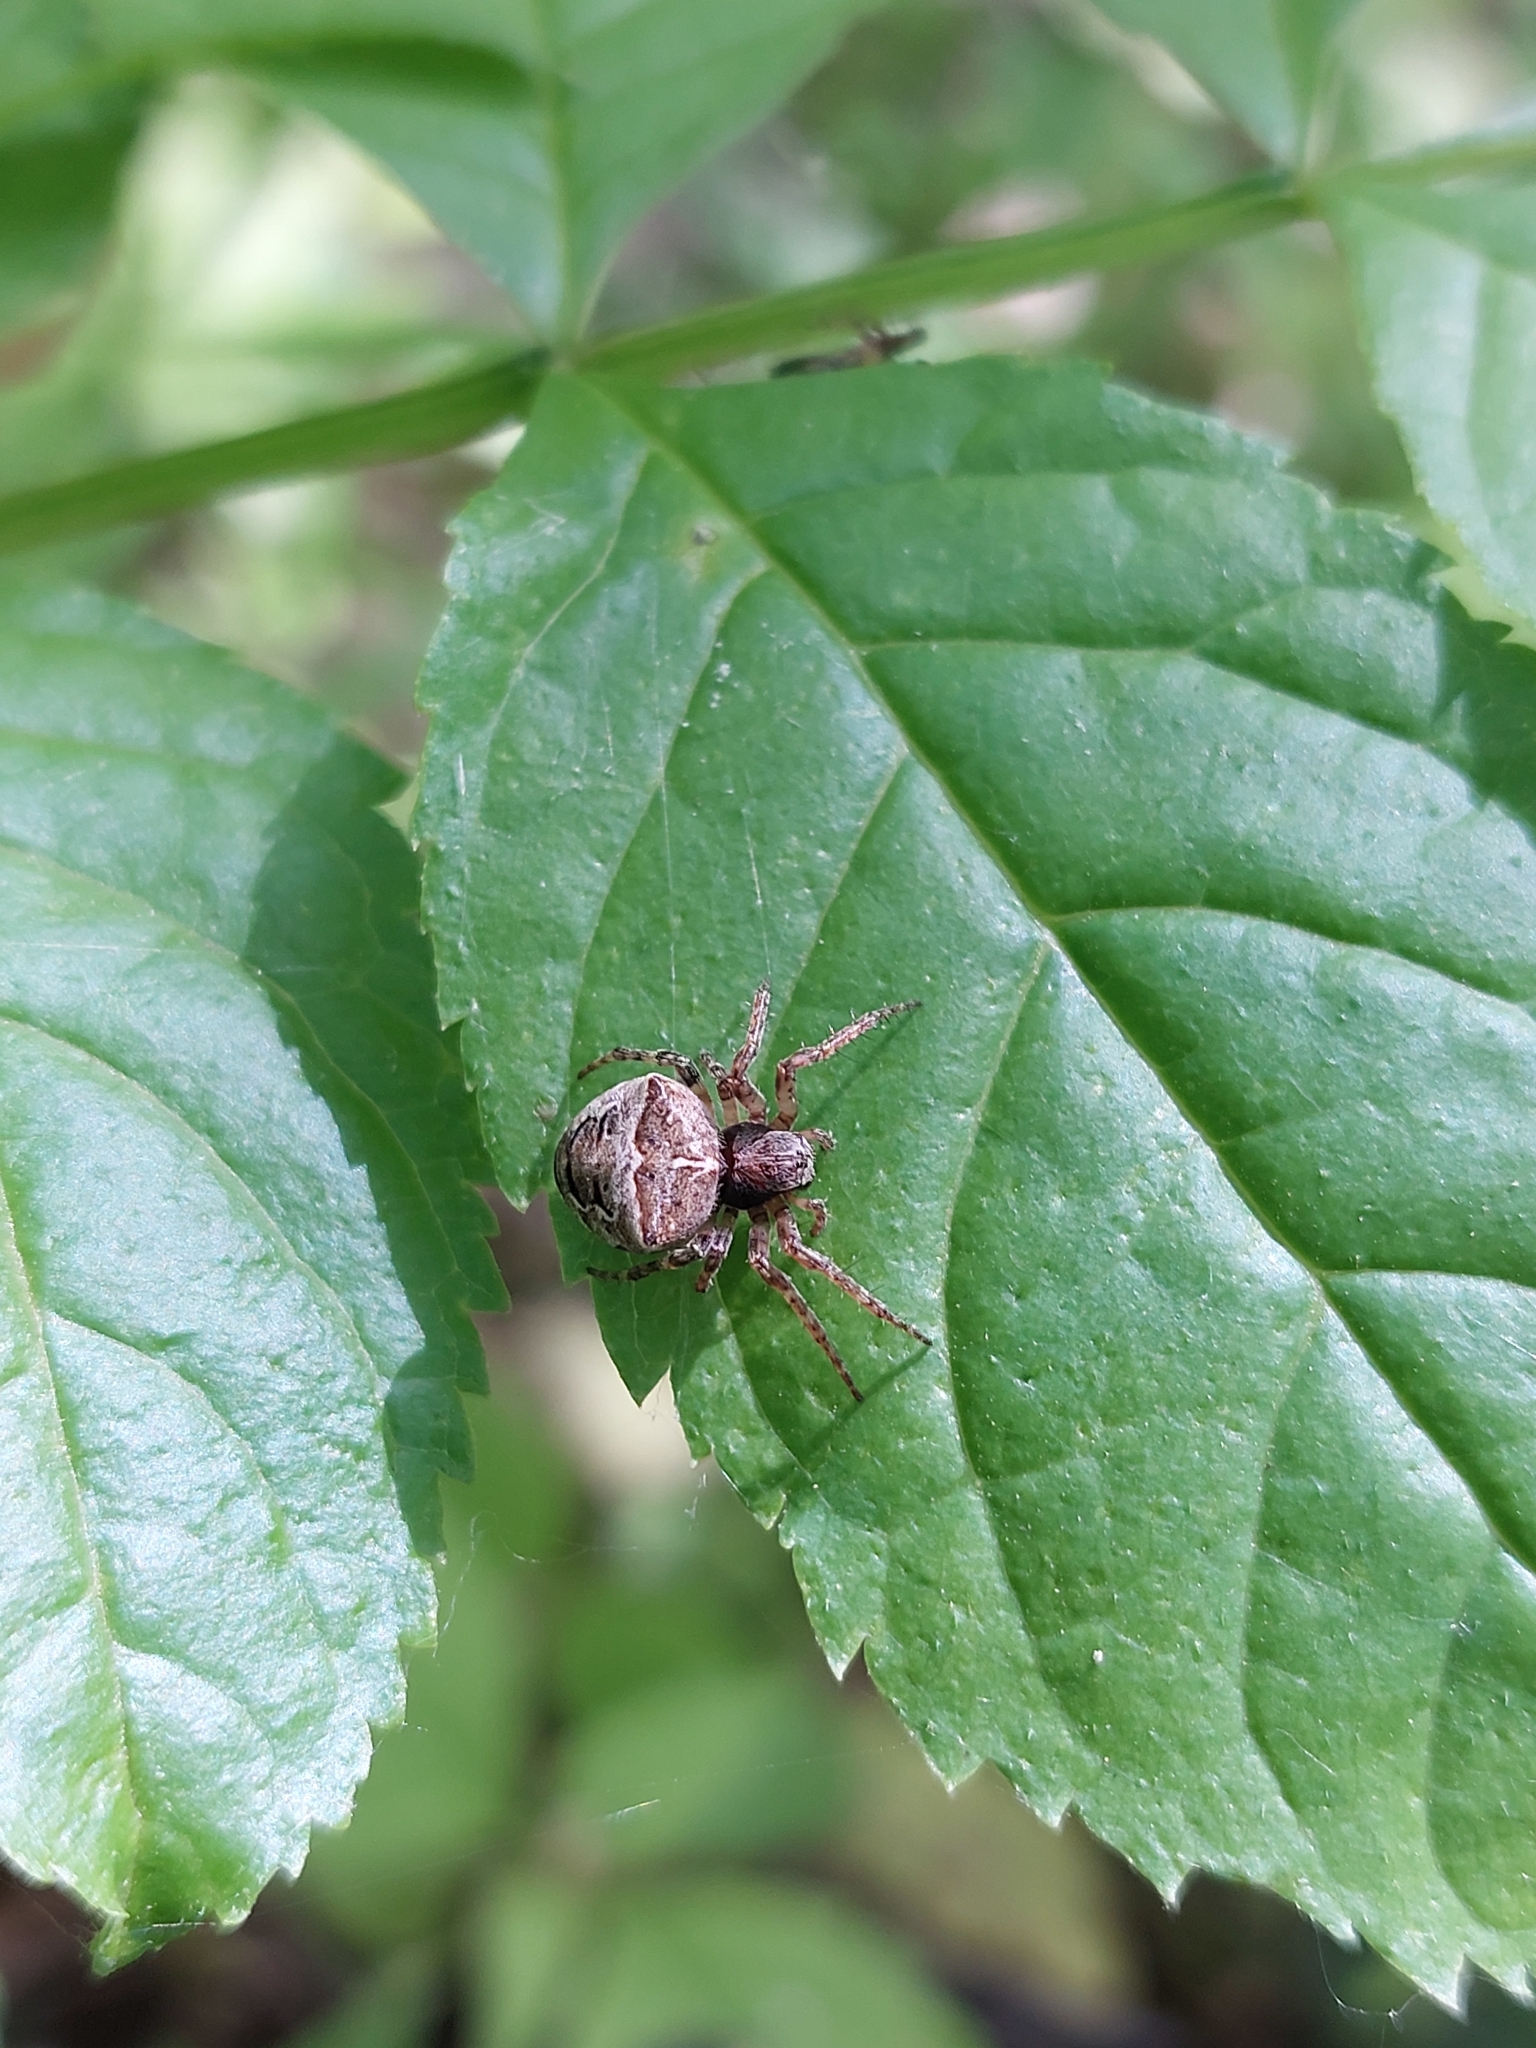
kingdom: Animalia
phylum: Arthropoda
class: Arachnida
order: Araneae
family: Araneidae
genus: Gibbaranea
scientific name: Gibbaranea bituberculata
